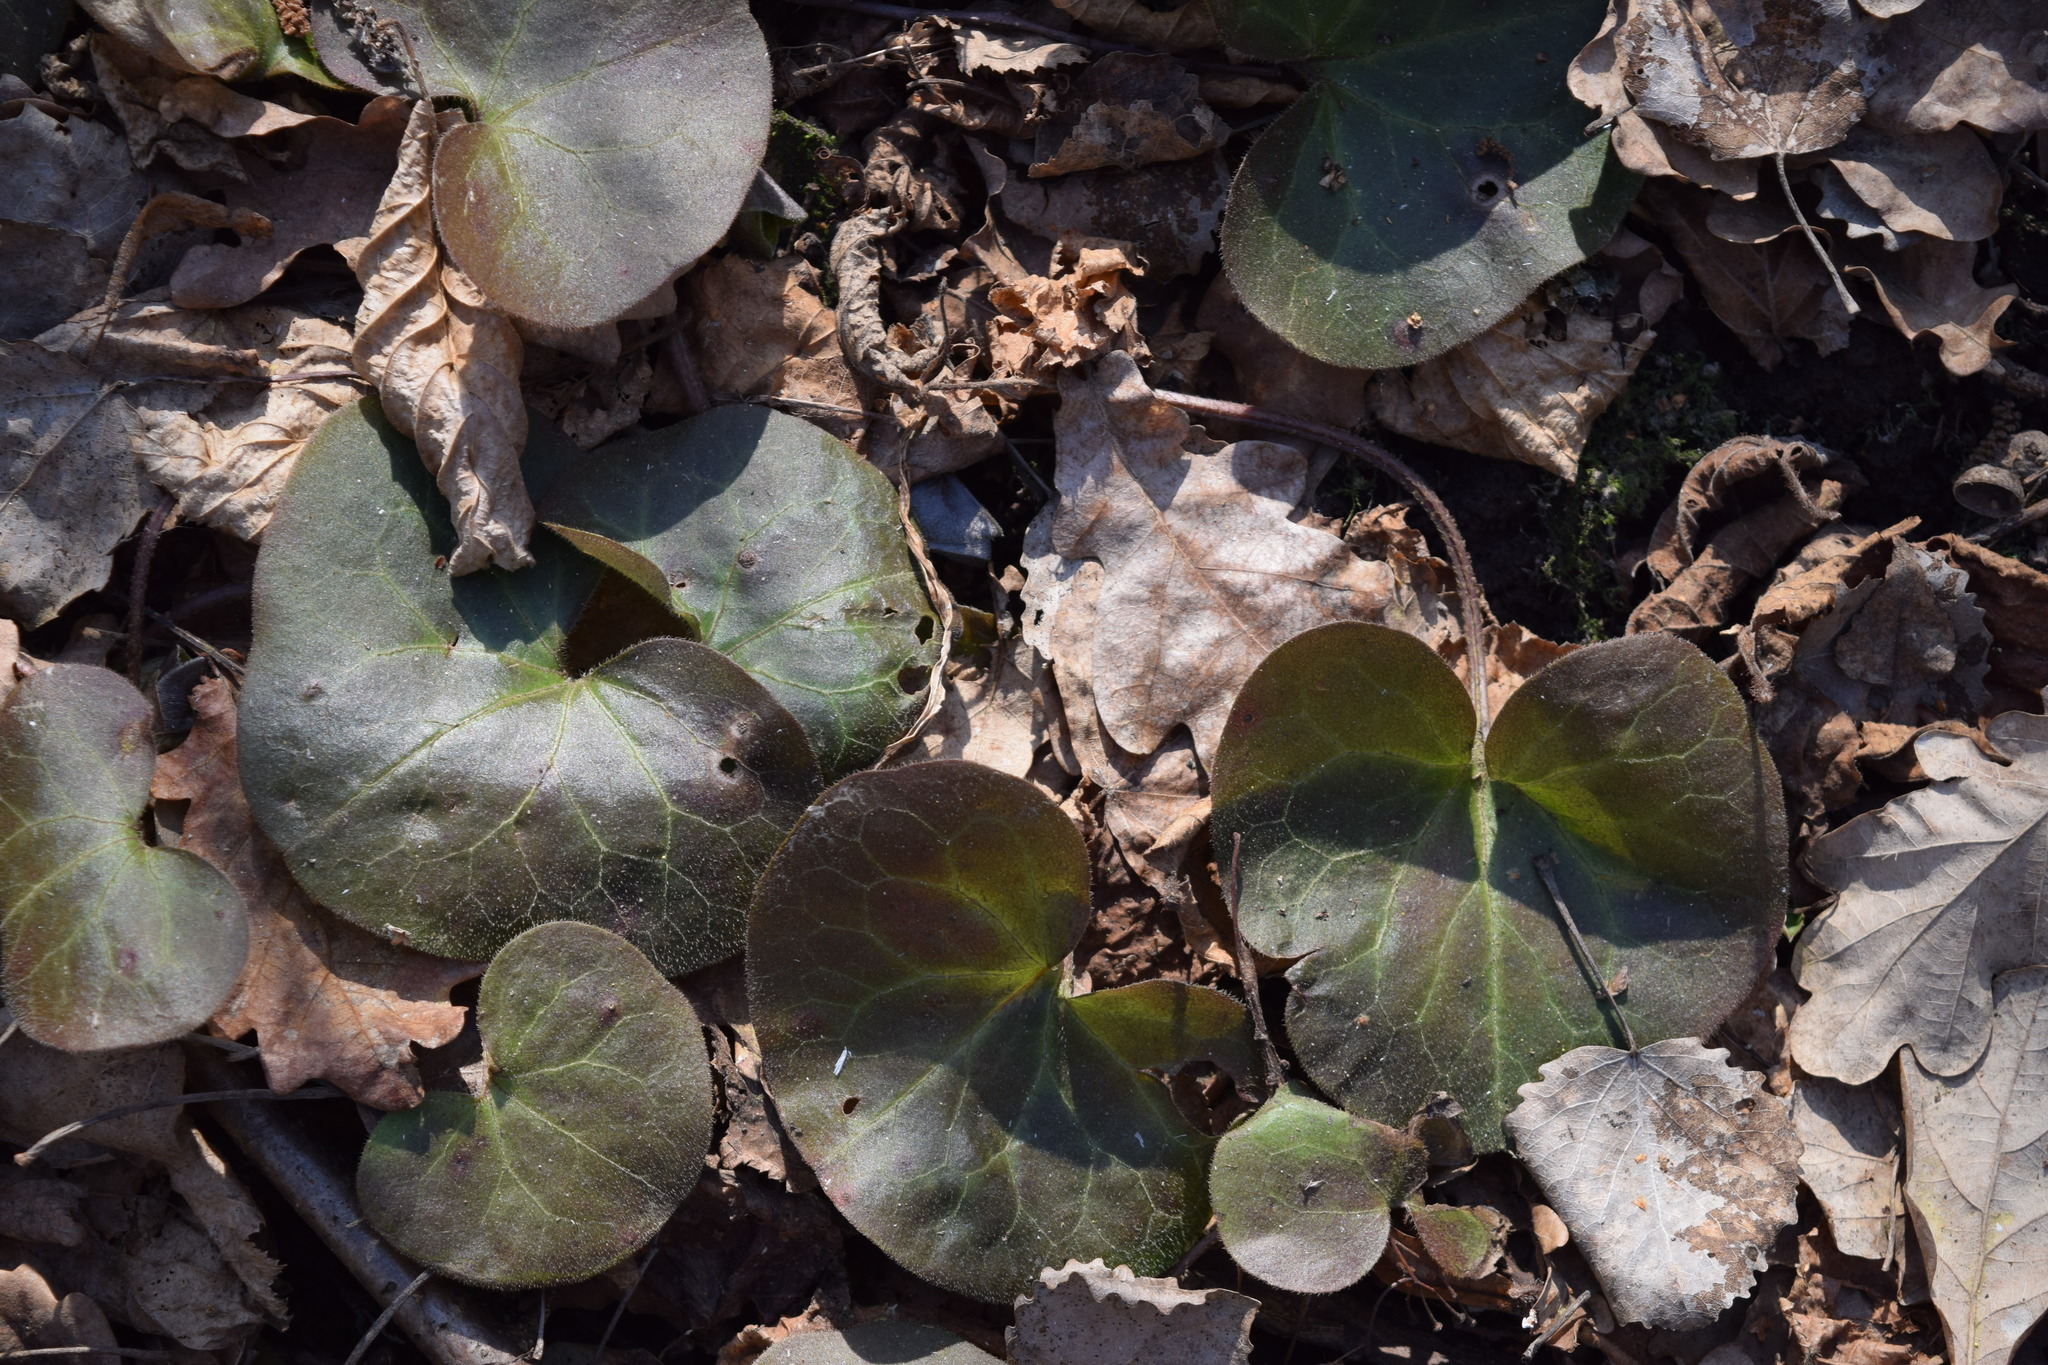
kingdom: Plantae
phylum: Tracheophyta
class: Magnoliopsida
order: Piperales
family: Aristolochiaceae
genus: Asarum
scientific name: Asarum europaeum
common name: Asarabacca
